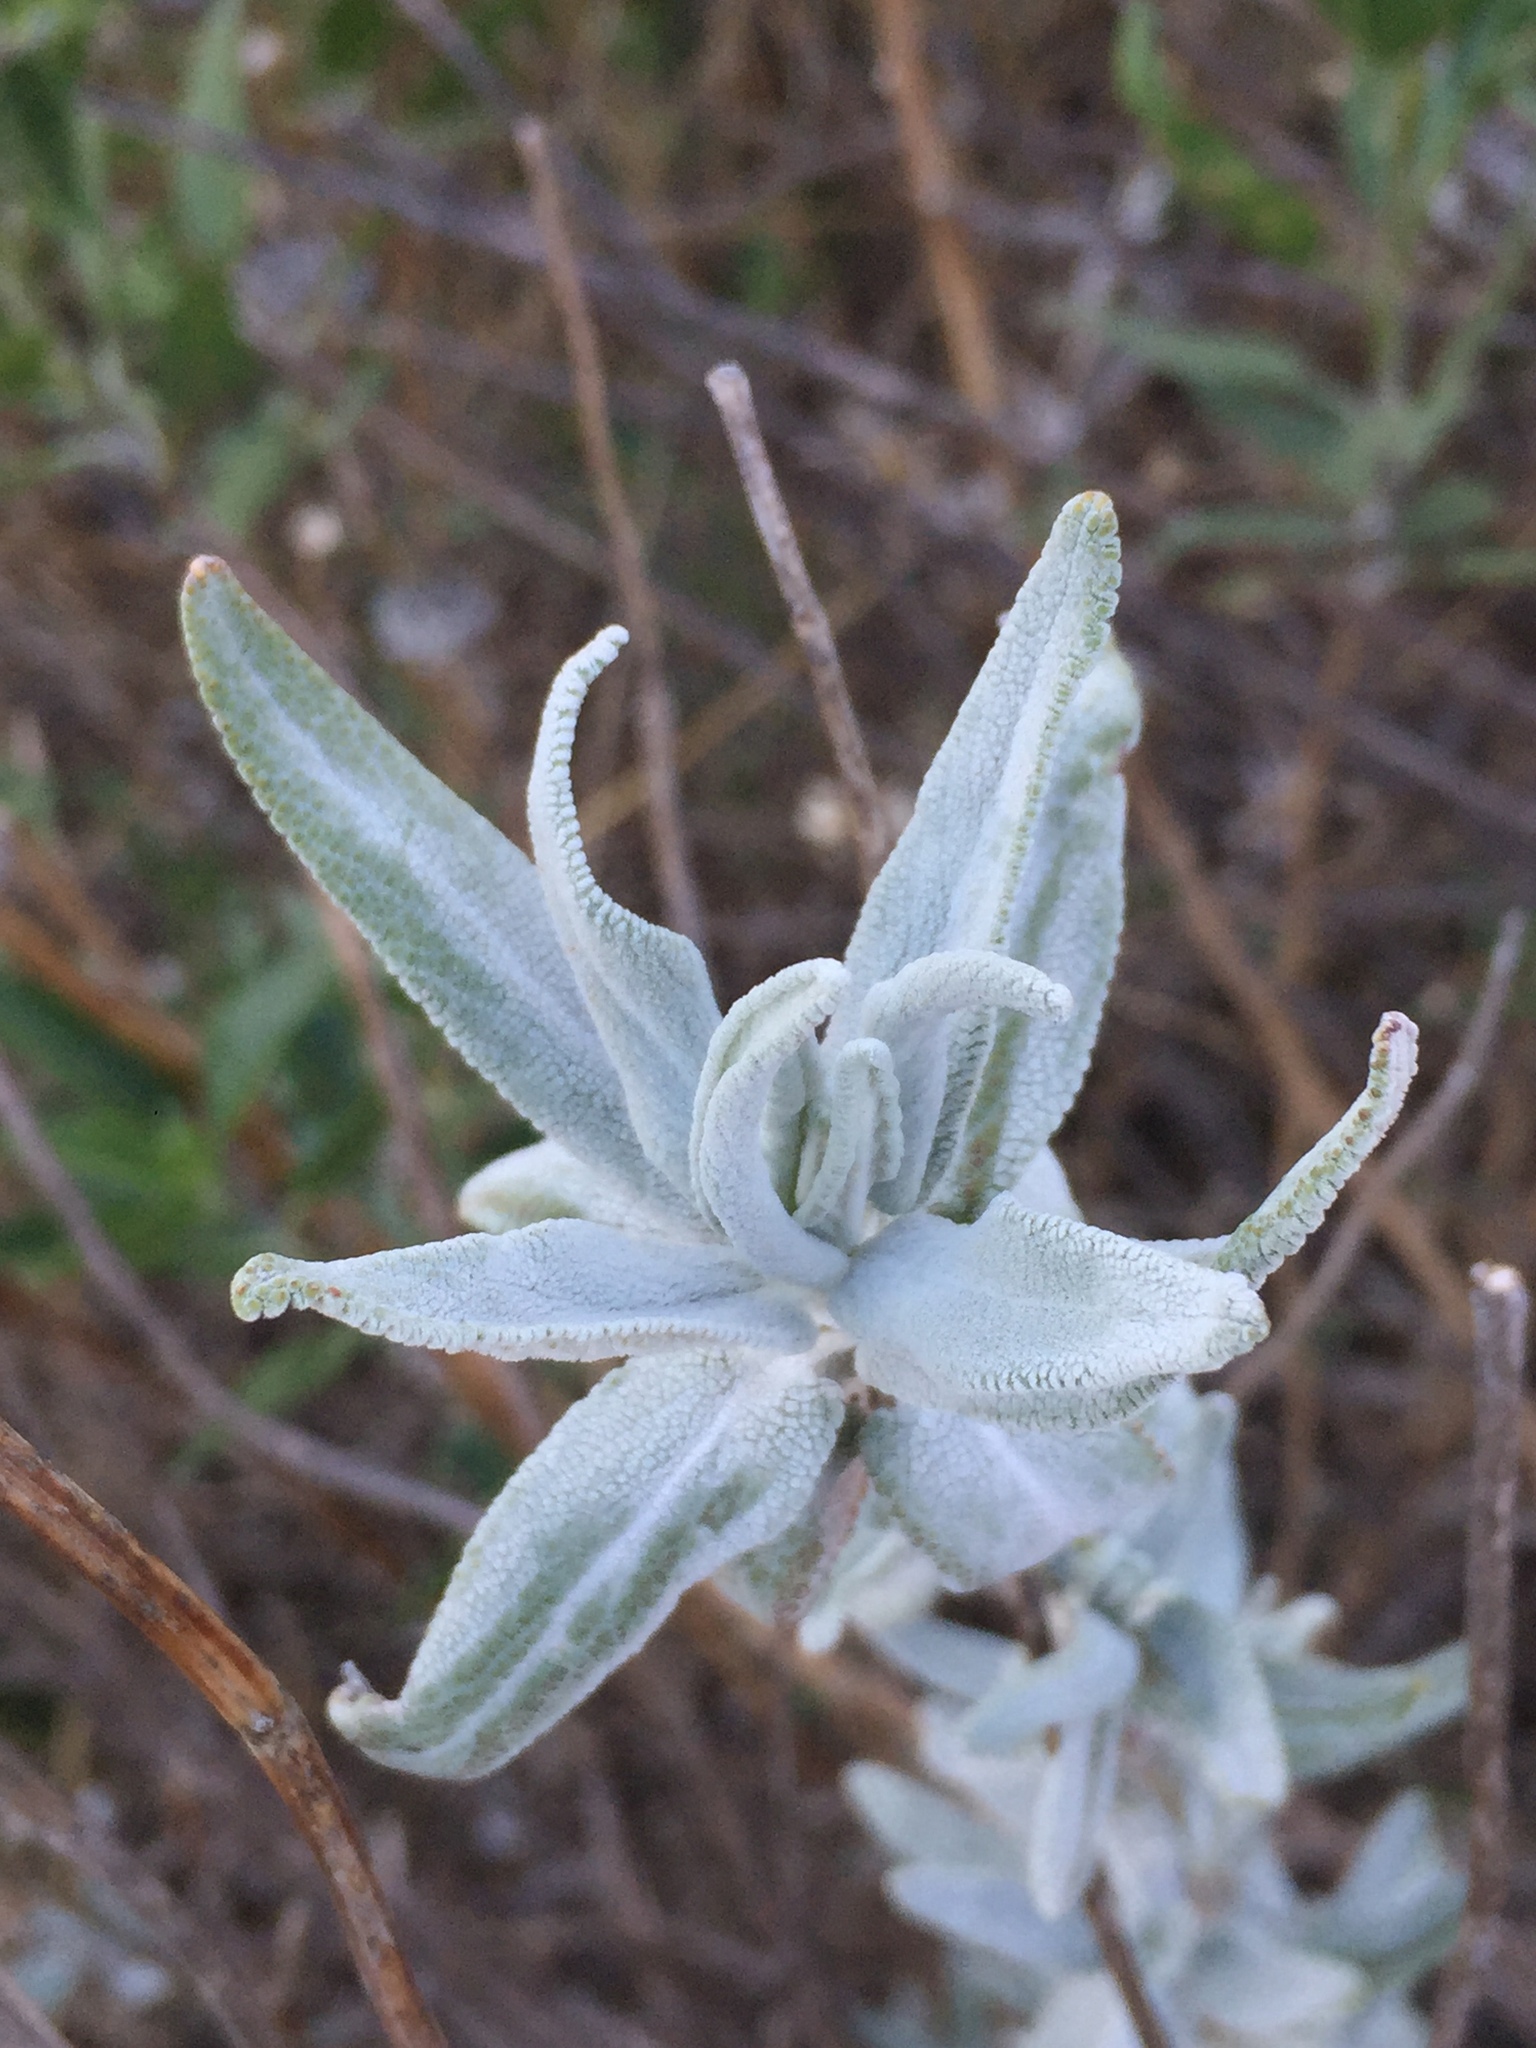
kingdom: Plantae
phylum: Tracheophyta
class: Magnoliopsida
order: Lamiales
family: Lamiaceae
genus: Salvia
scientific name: Salvia leucophylla
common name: Purple sage
